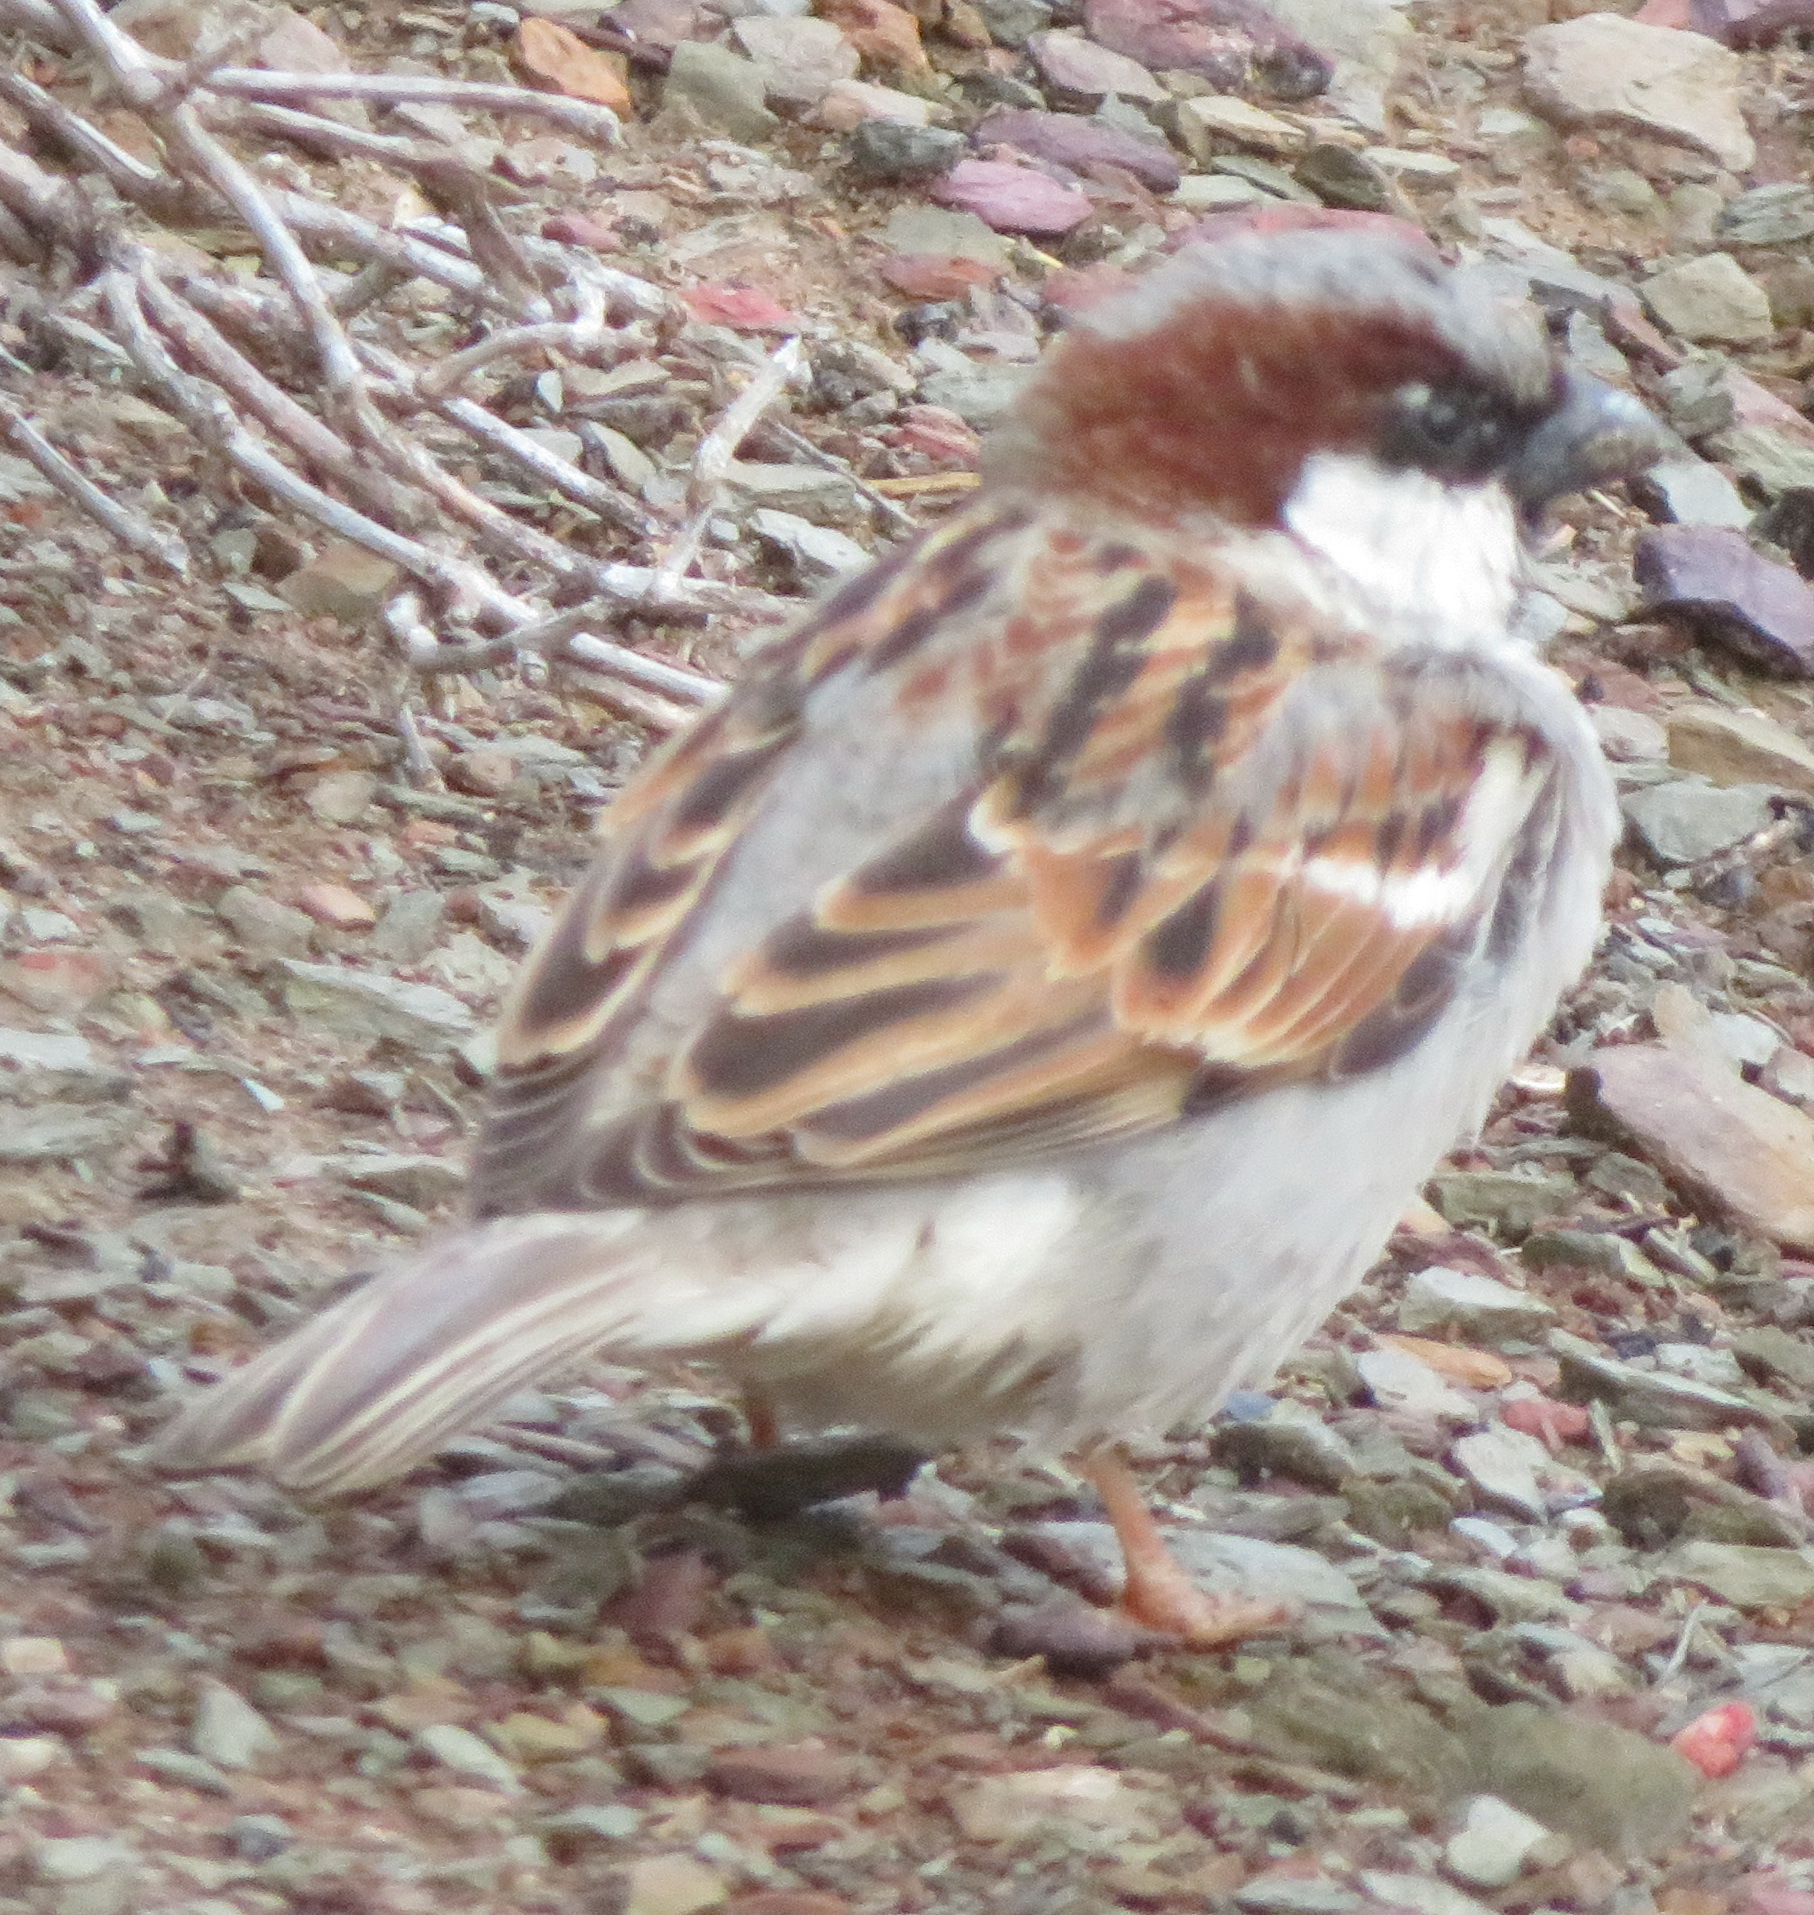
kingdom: Animalia
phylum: Chordata
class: Aves
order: Passeriformes
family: Passeridae
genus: Passer
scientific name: Passer domesticus
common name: House sparrow
